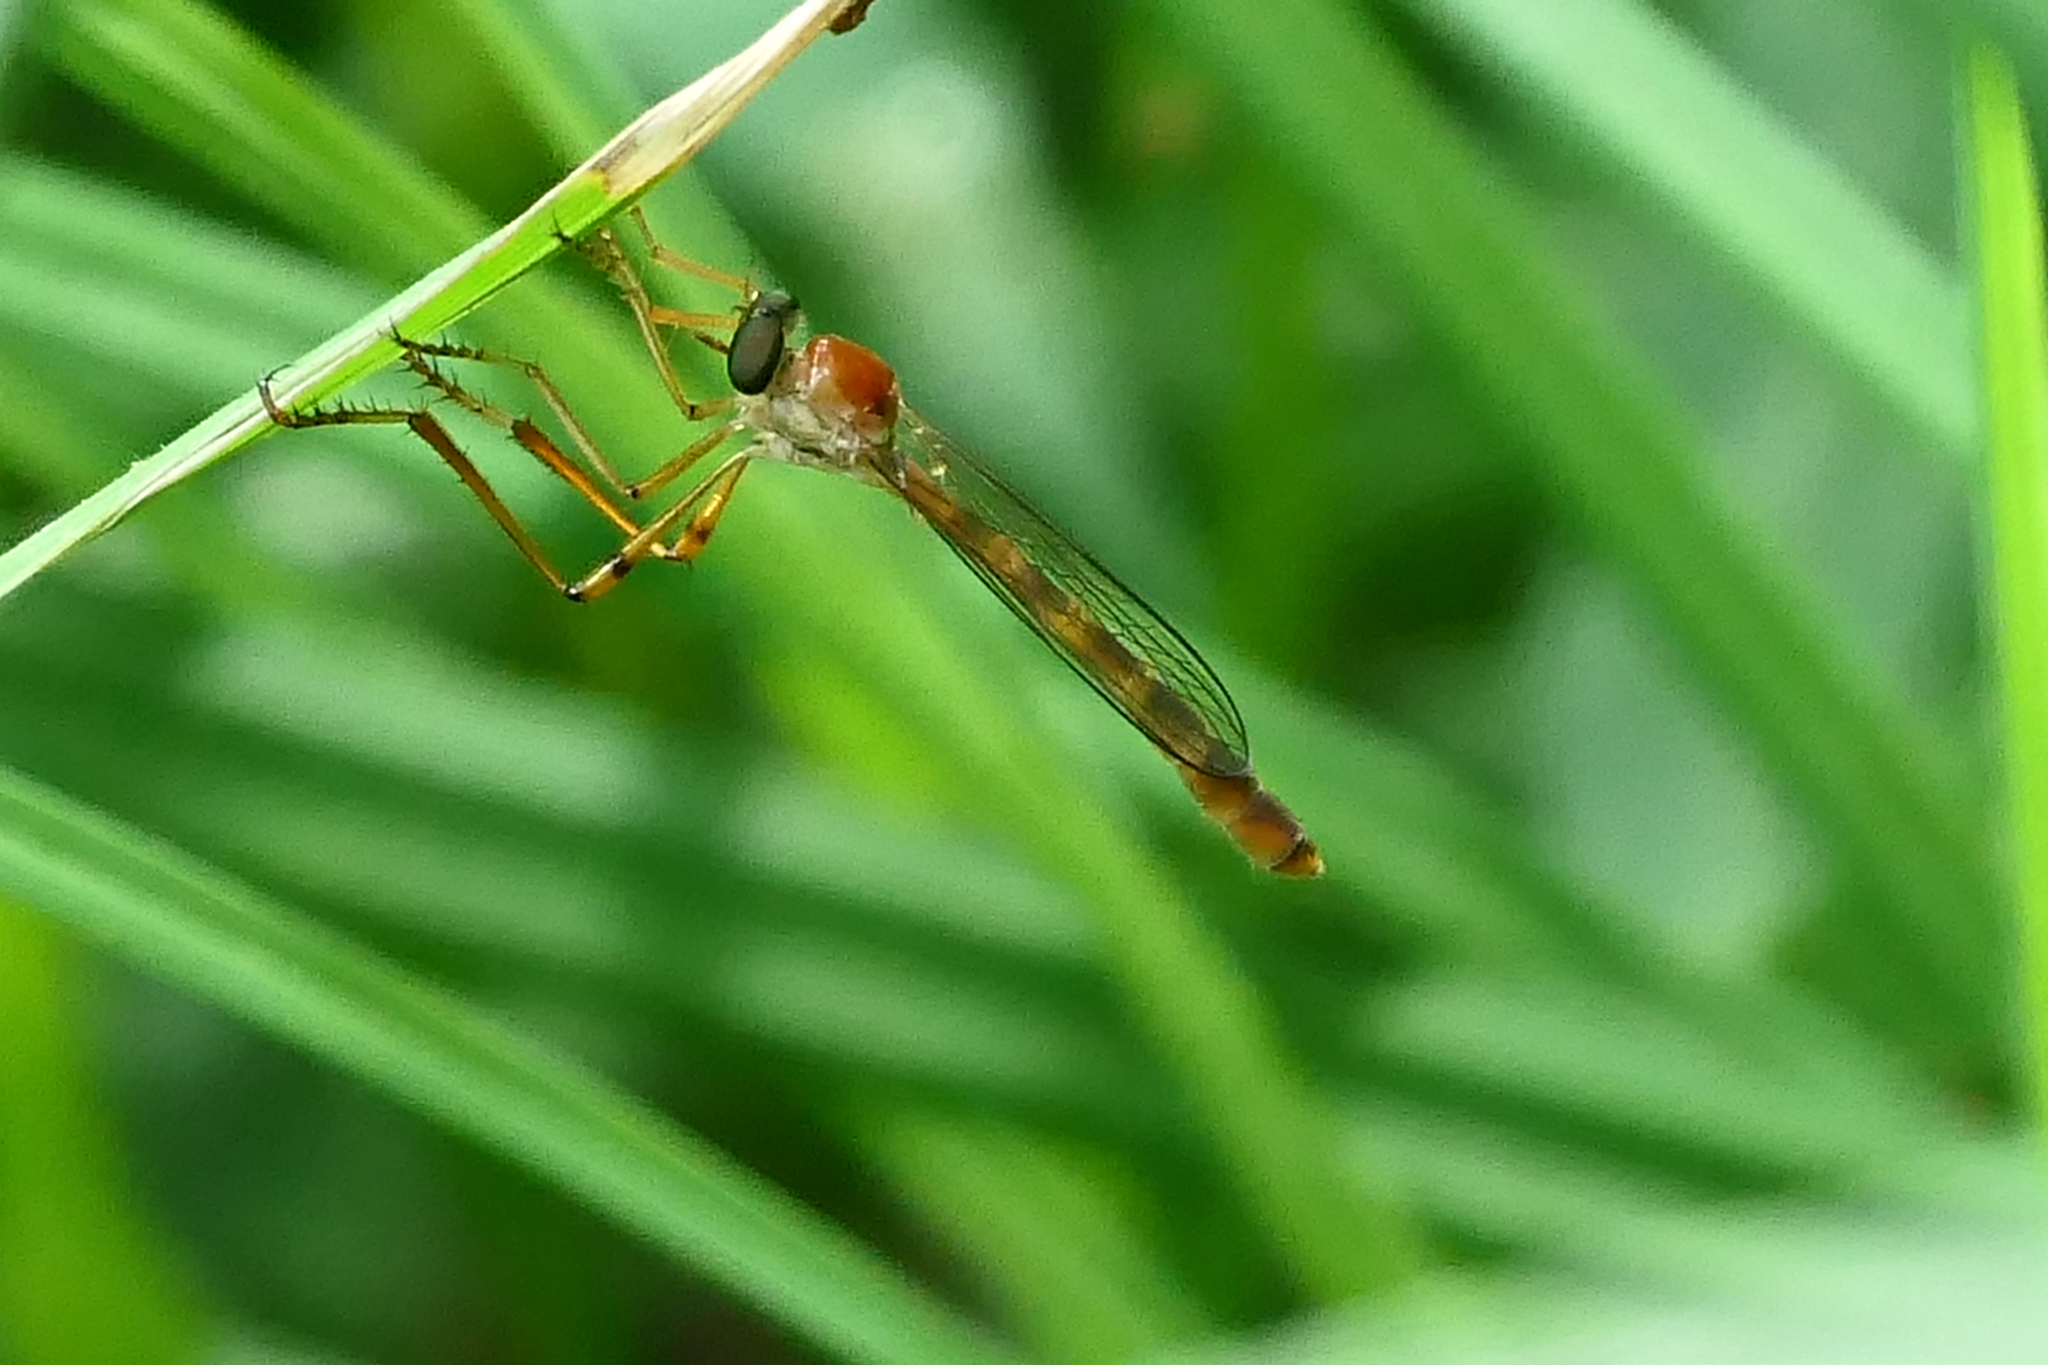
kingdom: Animalia
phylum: Arthropoda
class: Insecta
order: Diptera
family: Asilidae
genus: Tipulogaster
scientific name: Tipulogaster glabrata
